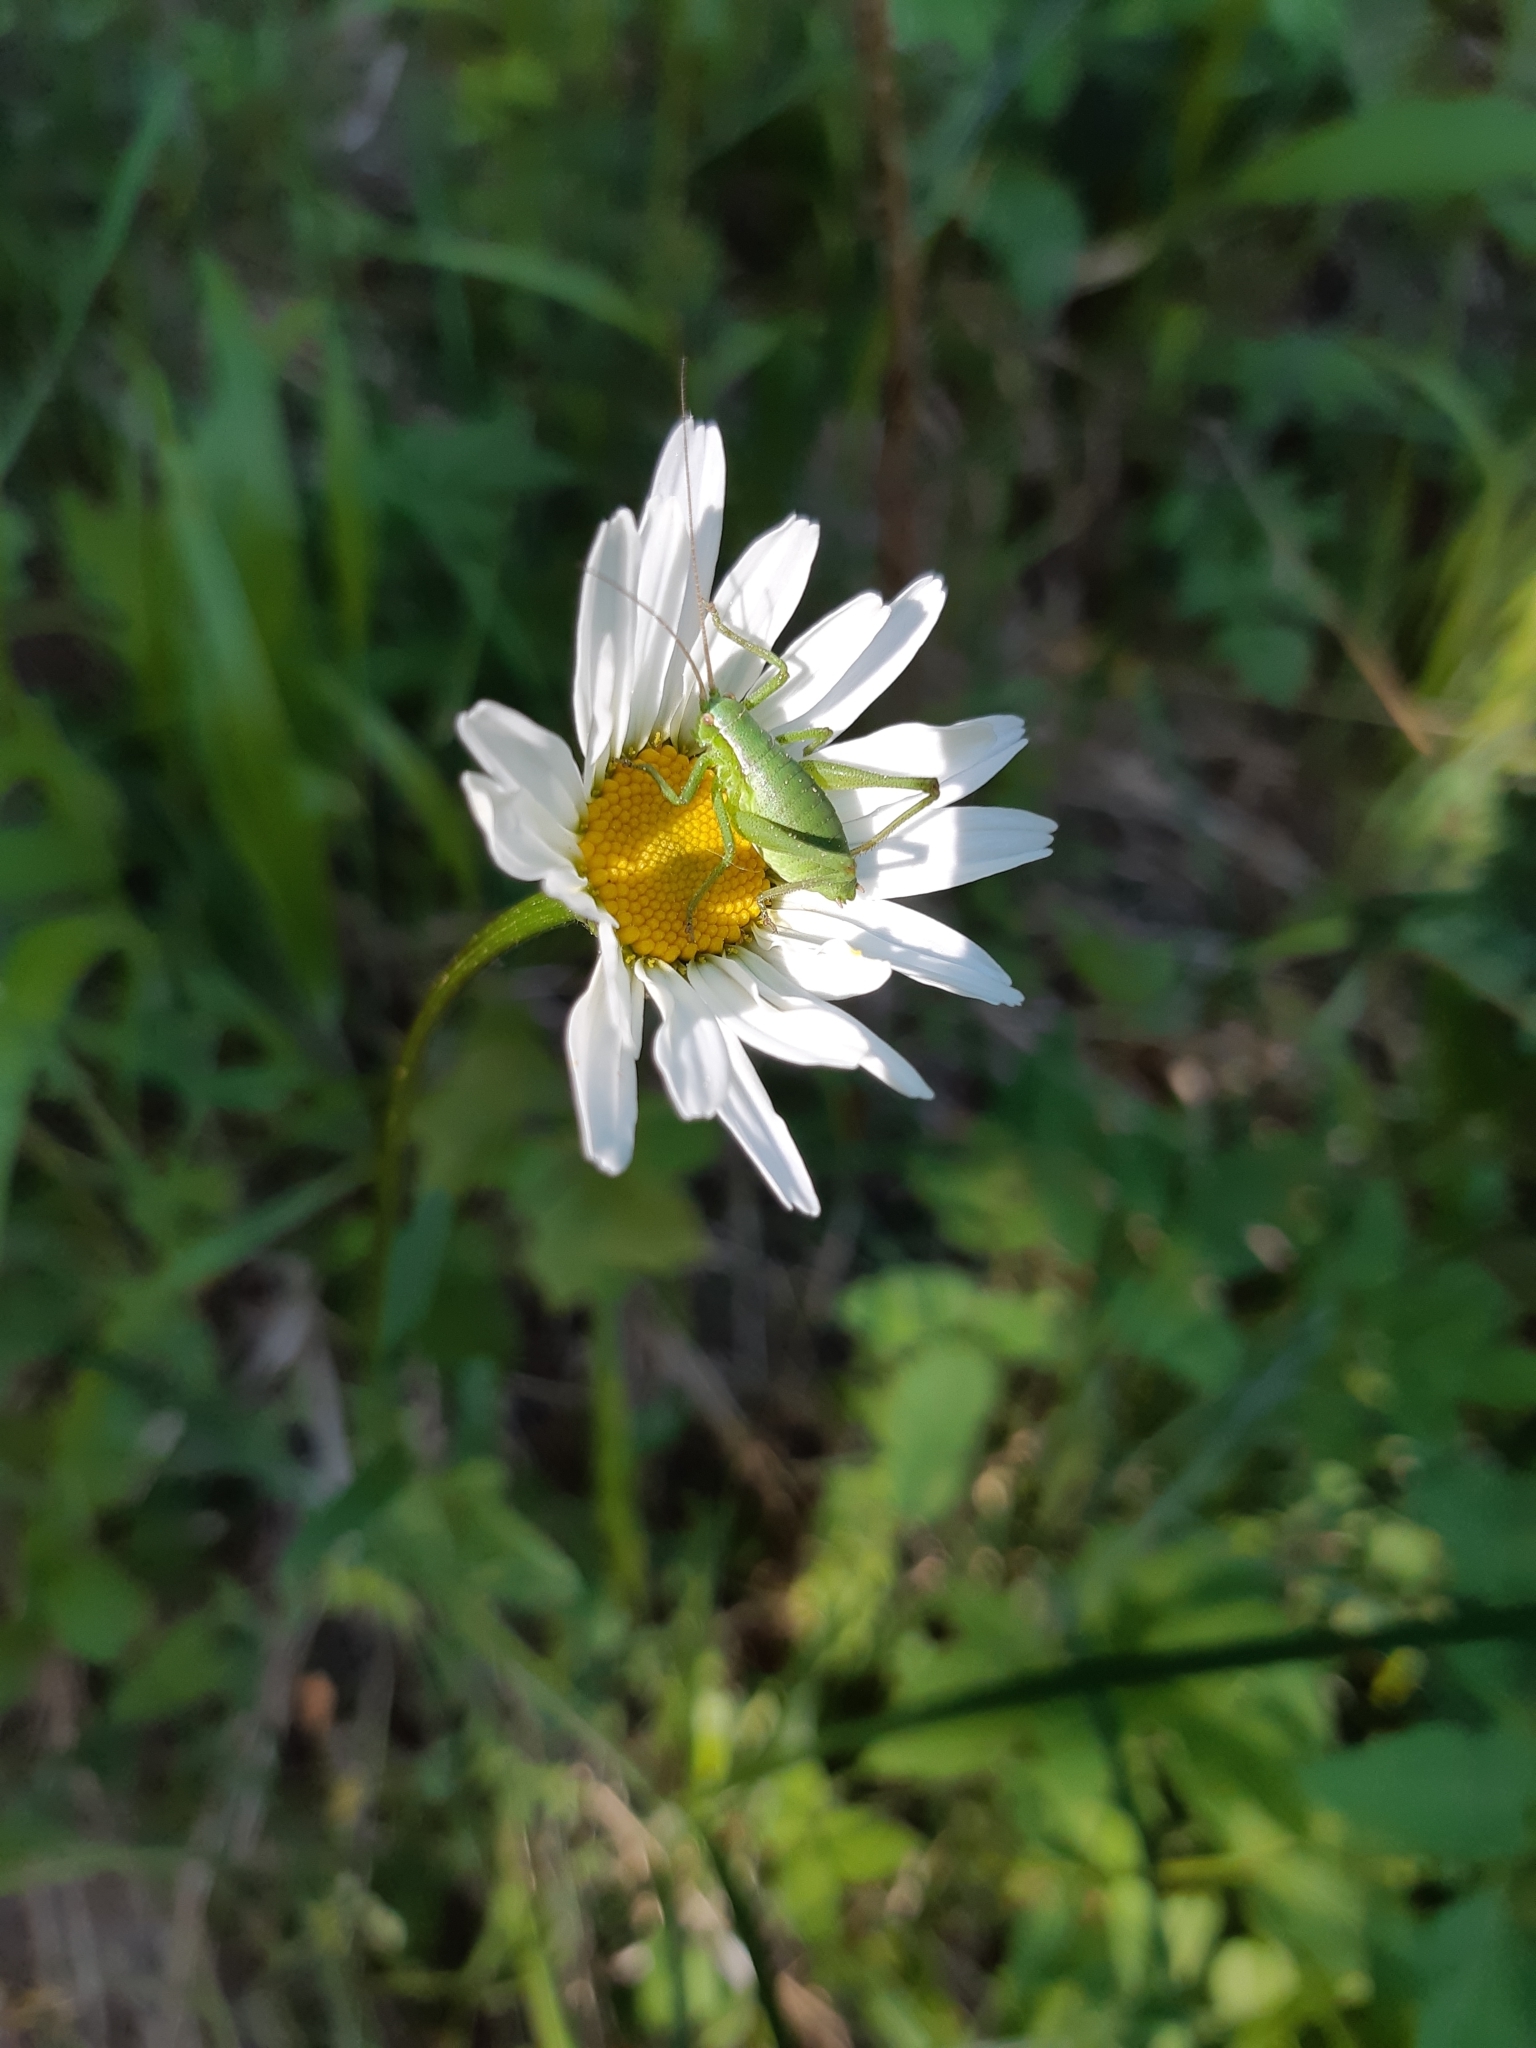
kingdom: Animalia
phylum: Arthropoda
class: Insecta
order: Orthoptera
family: Tettigoniidae
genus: Polysarcus
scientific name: Polysarcus denticauda
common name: Large saw-tailed bush-cricket
